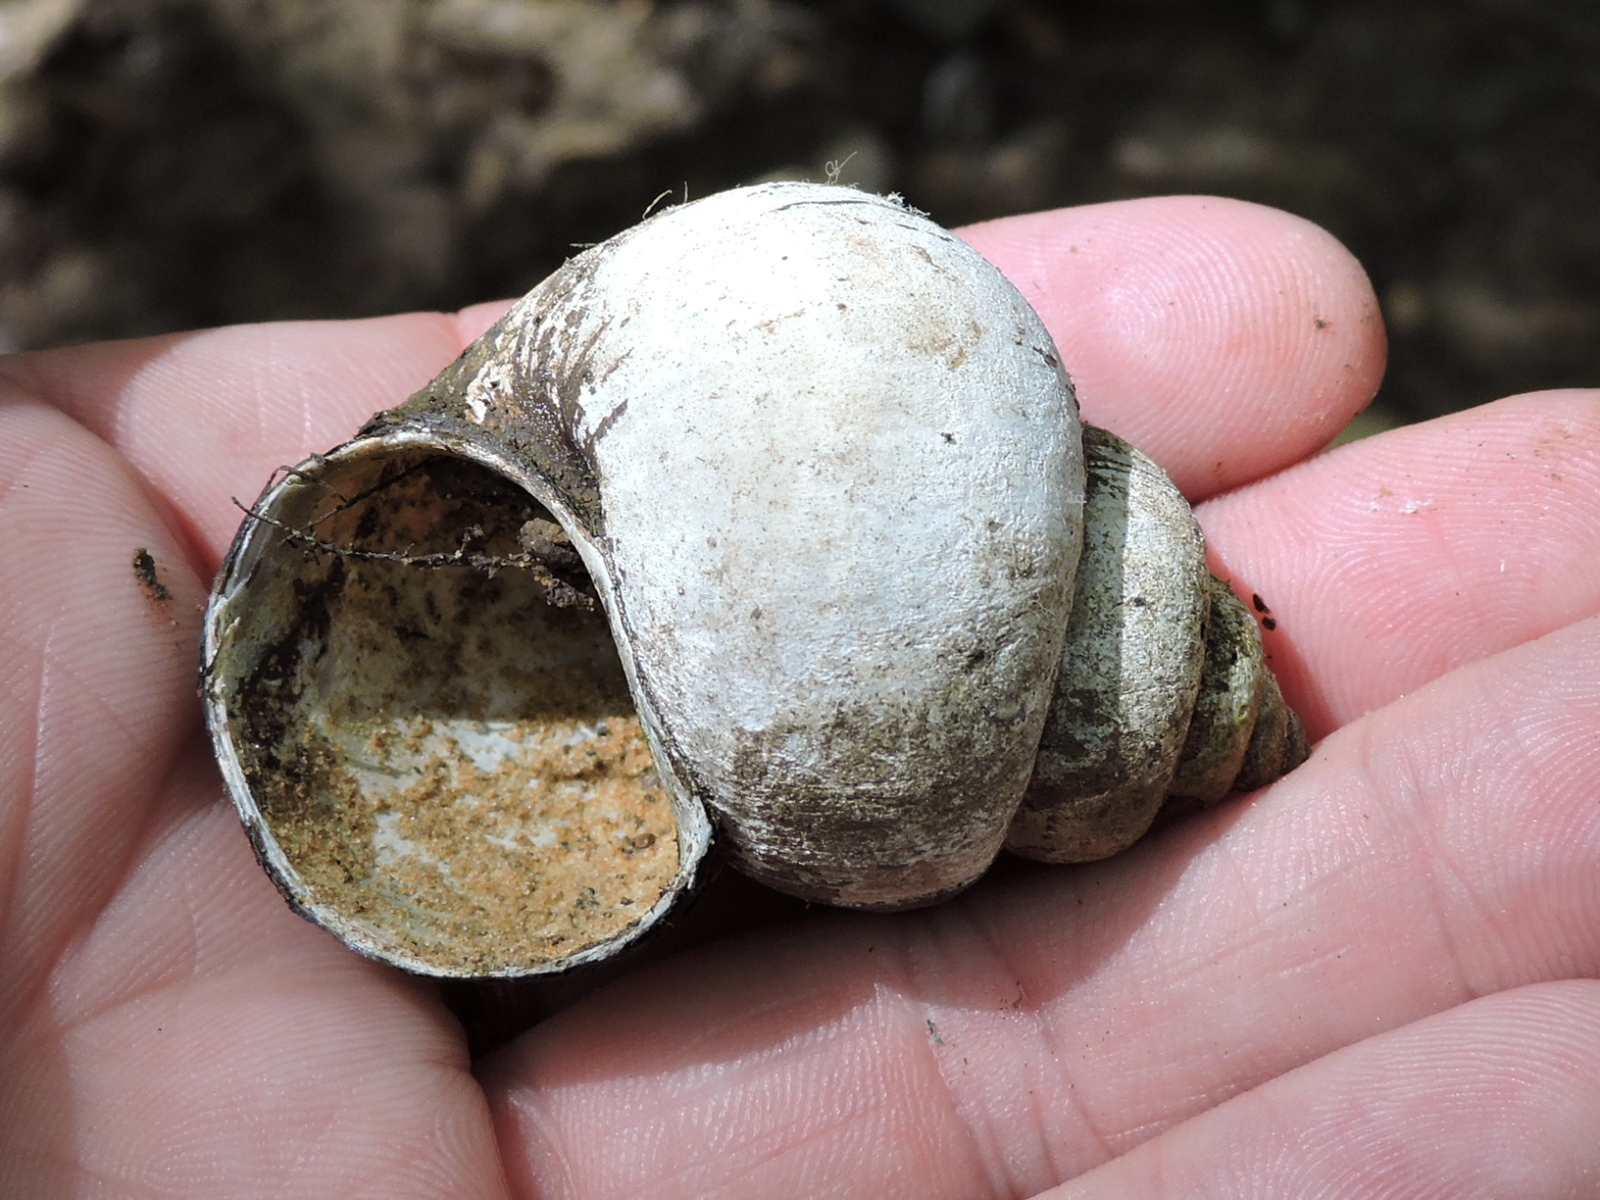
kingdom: Animalia
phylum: Mollusca
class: Gastropoda
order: Architaenioglossa
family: Viviparidae
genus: Cipangopaludina
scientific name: Cipangopaludina chinensis
